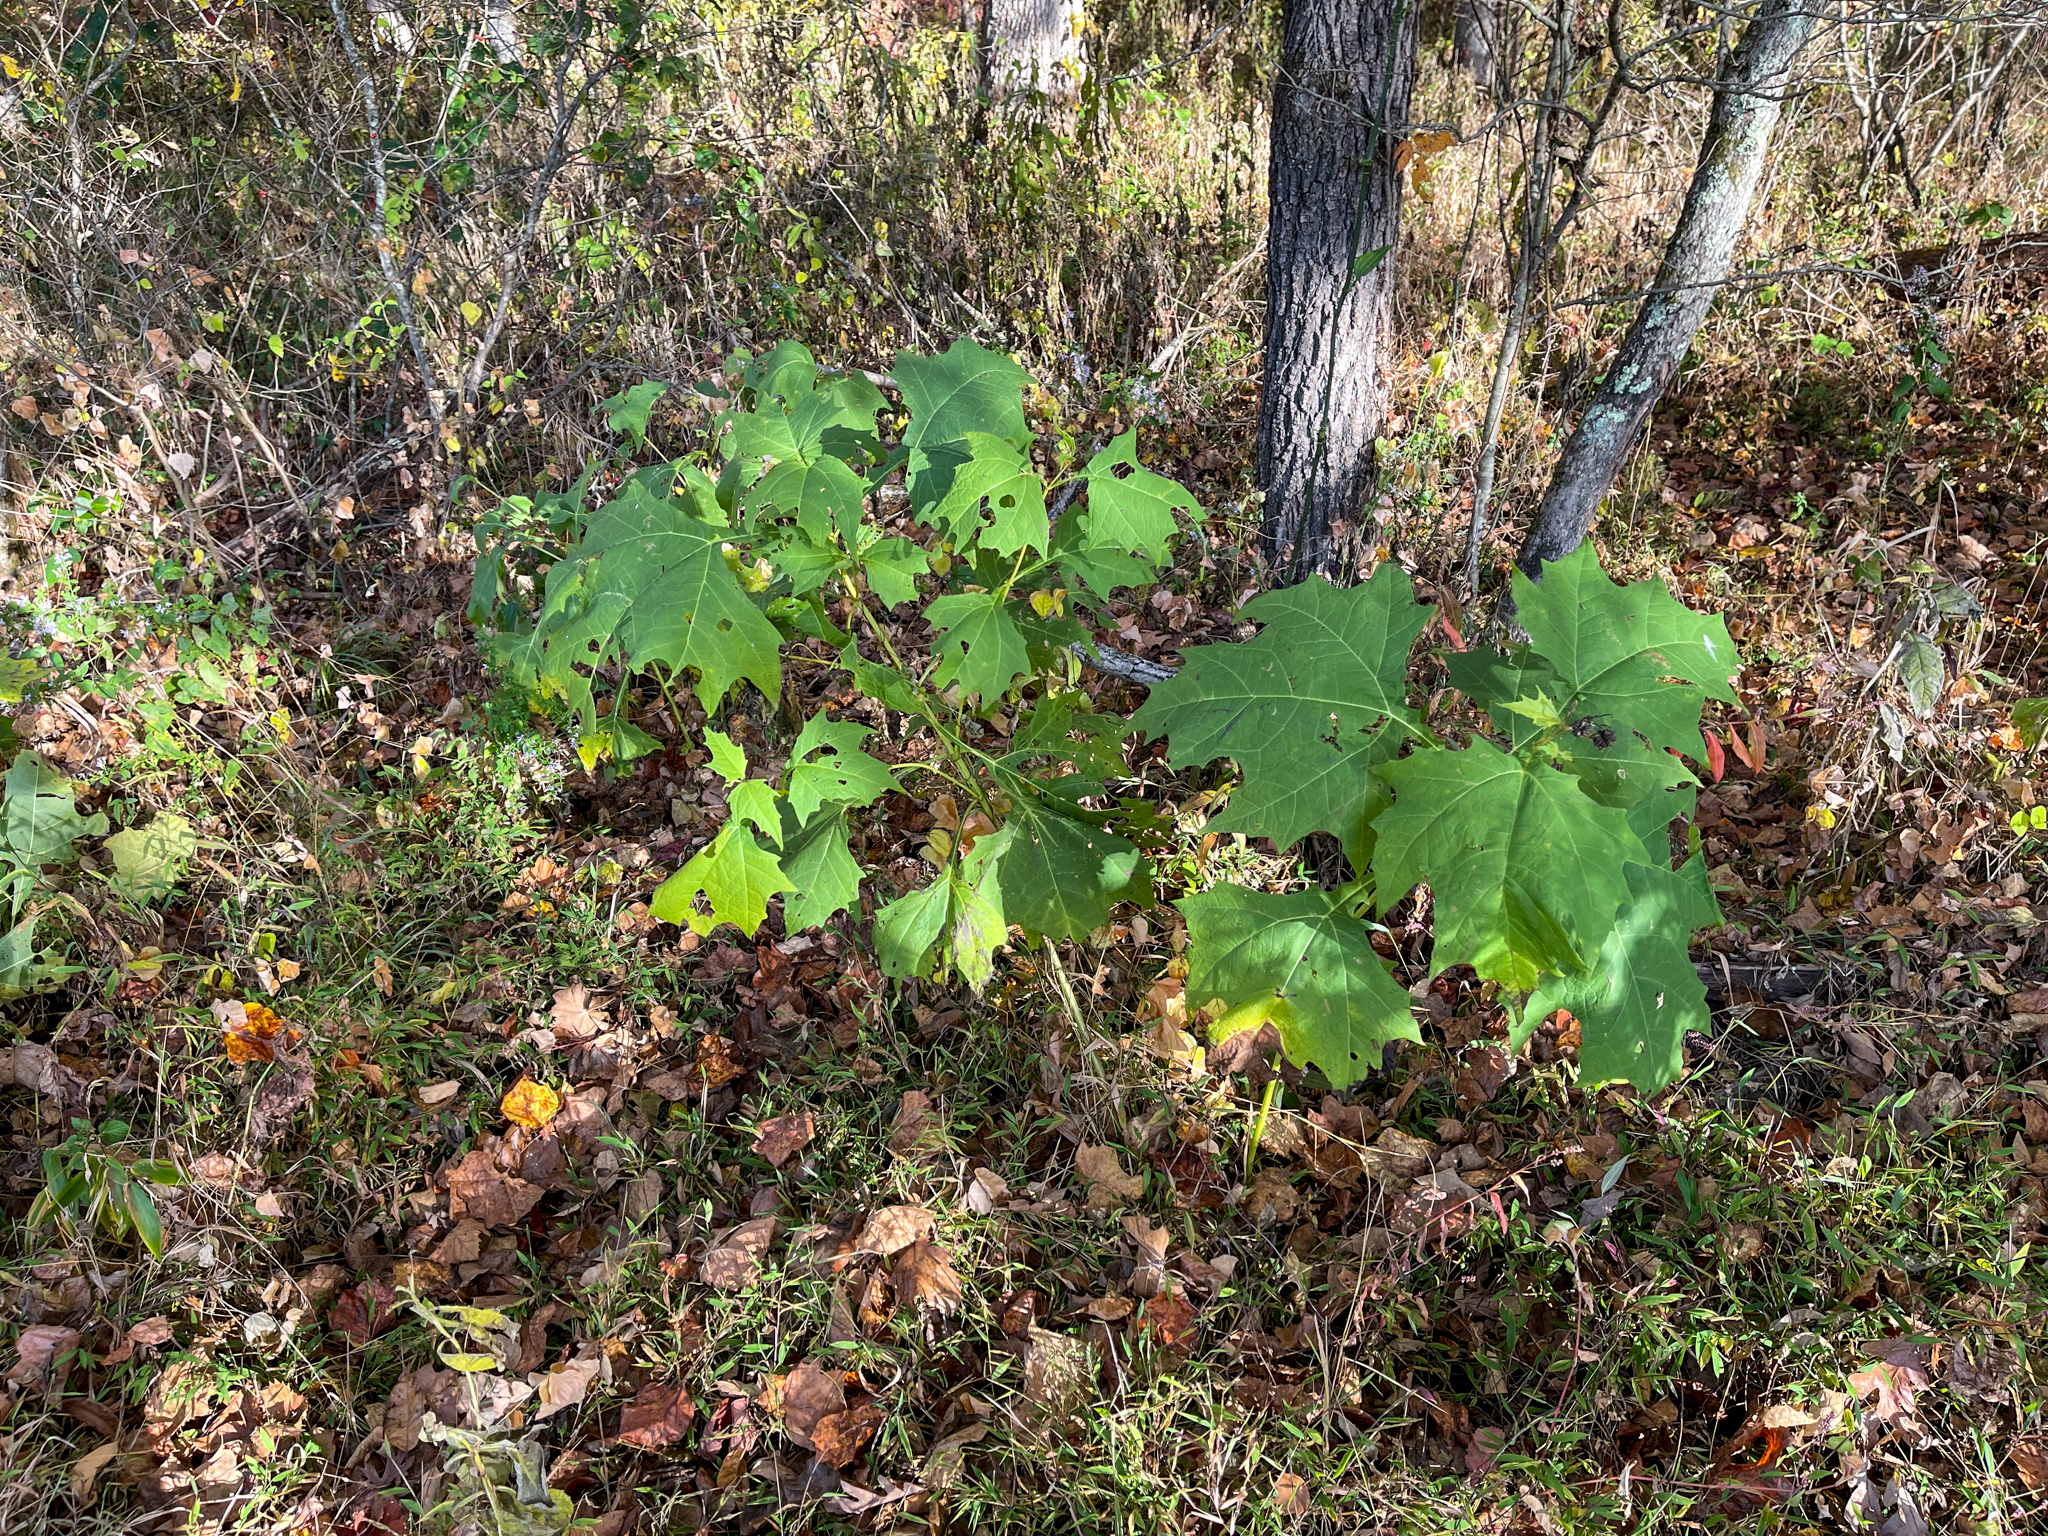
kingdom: Plantae
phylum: Tracheophyta
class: Magnoliopsida
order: Asterales
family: Asteraceae
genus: Smallanthus
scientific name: Smallanthus uvedalia
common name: Bear's-foot
